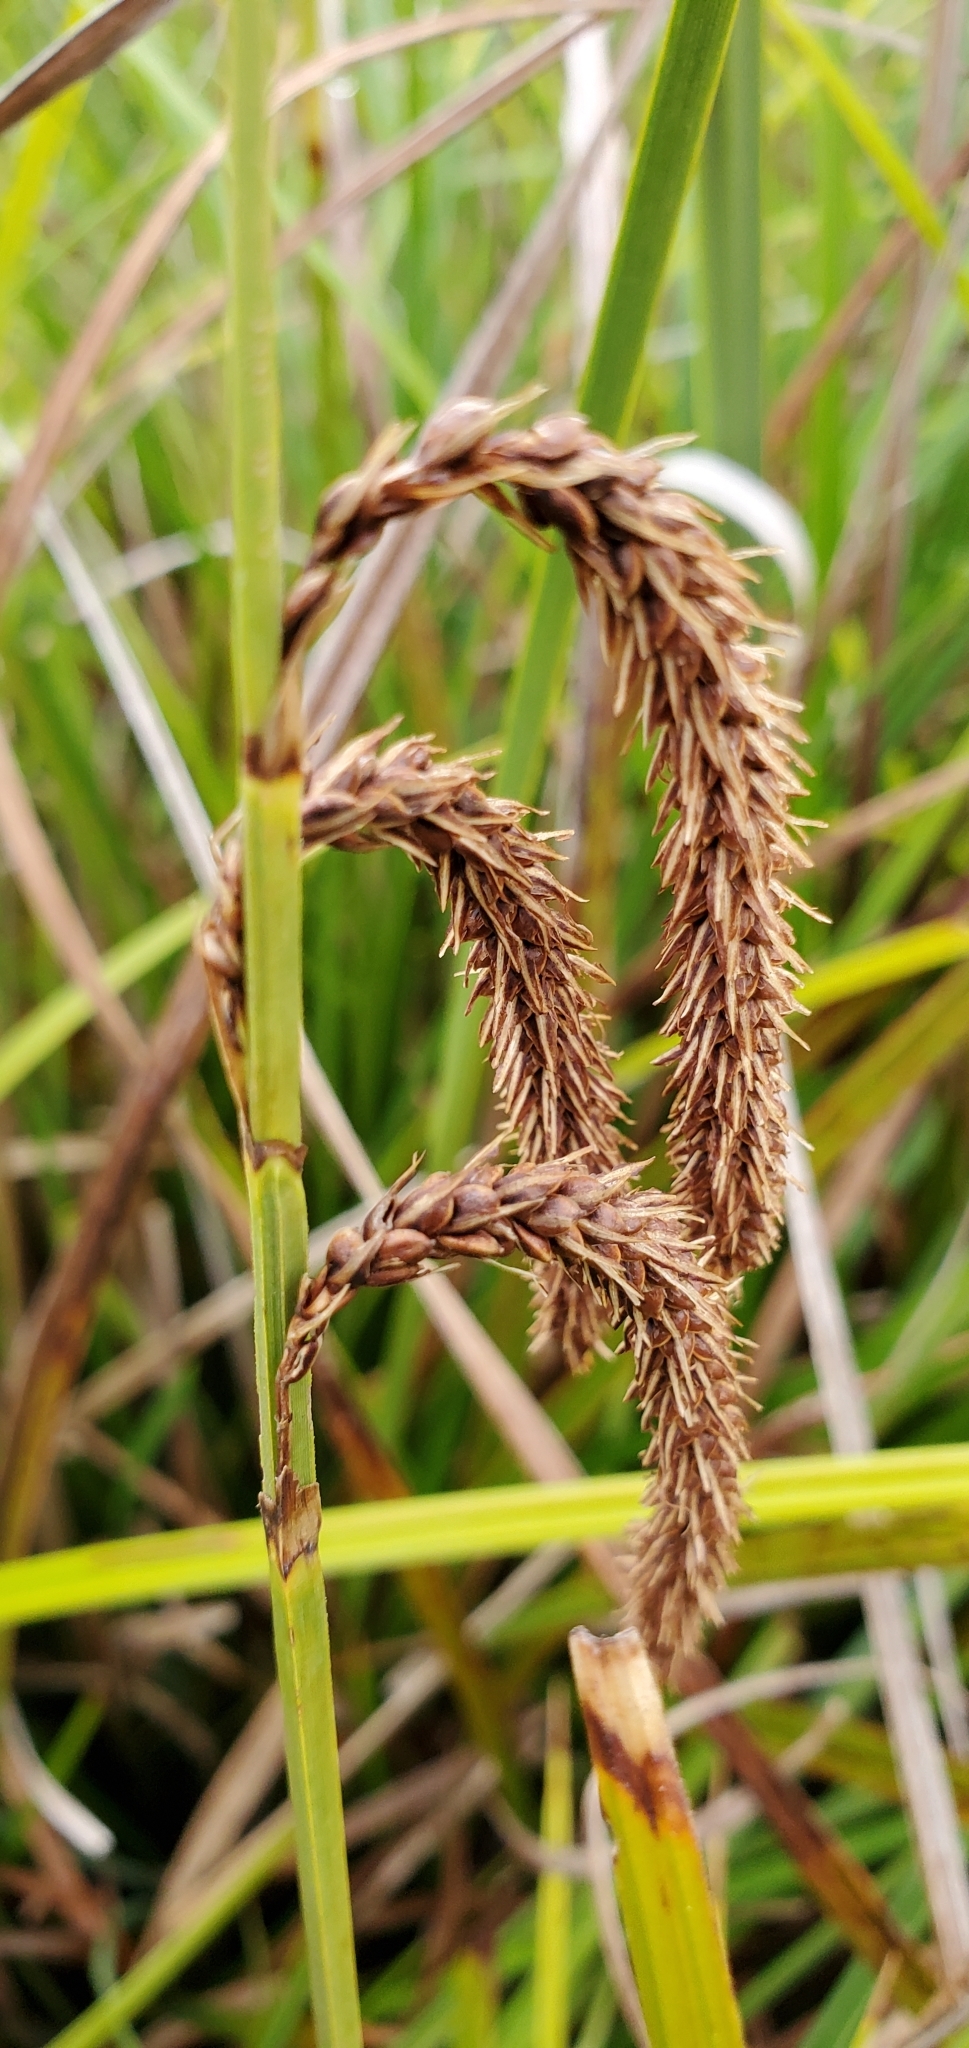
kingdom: Plantae
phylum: Tracheophyta
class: Liliopsida
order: Poales
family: Cyperaceae
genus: Carex
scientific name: Carex obnupta
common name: Slough sedge
